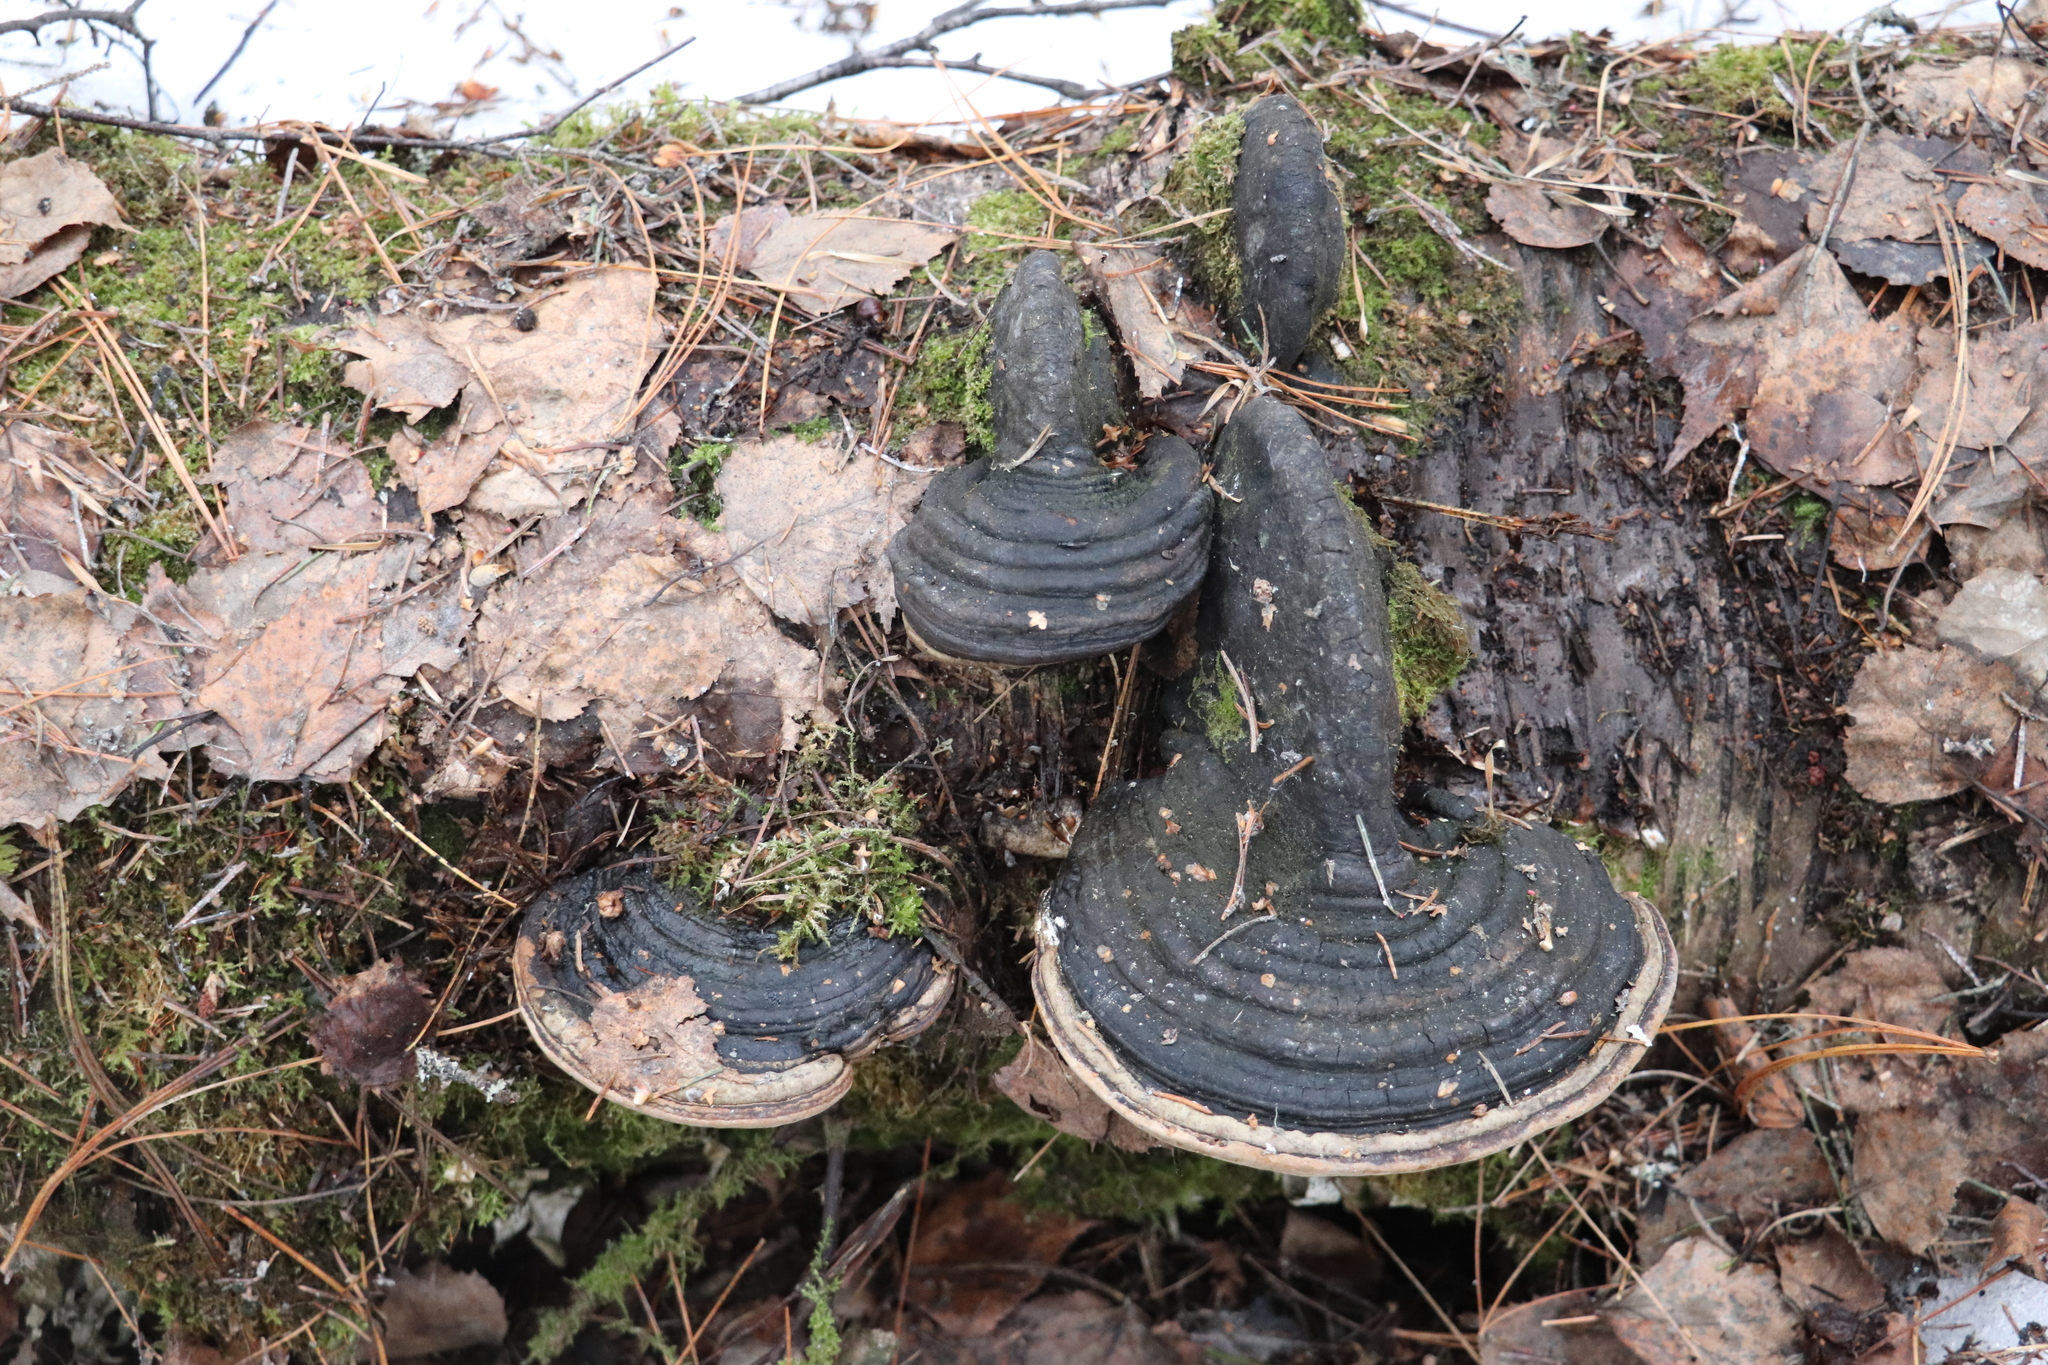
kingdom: Fungi
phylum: Basidiomycota
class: Agaricomycetes
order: Hymenochaetales
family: Hymenochaetaceae
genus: Phellinus
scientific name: Phellinus igniarius
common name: Willow bracket
